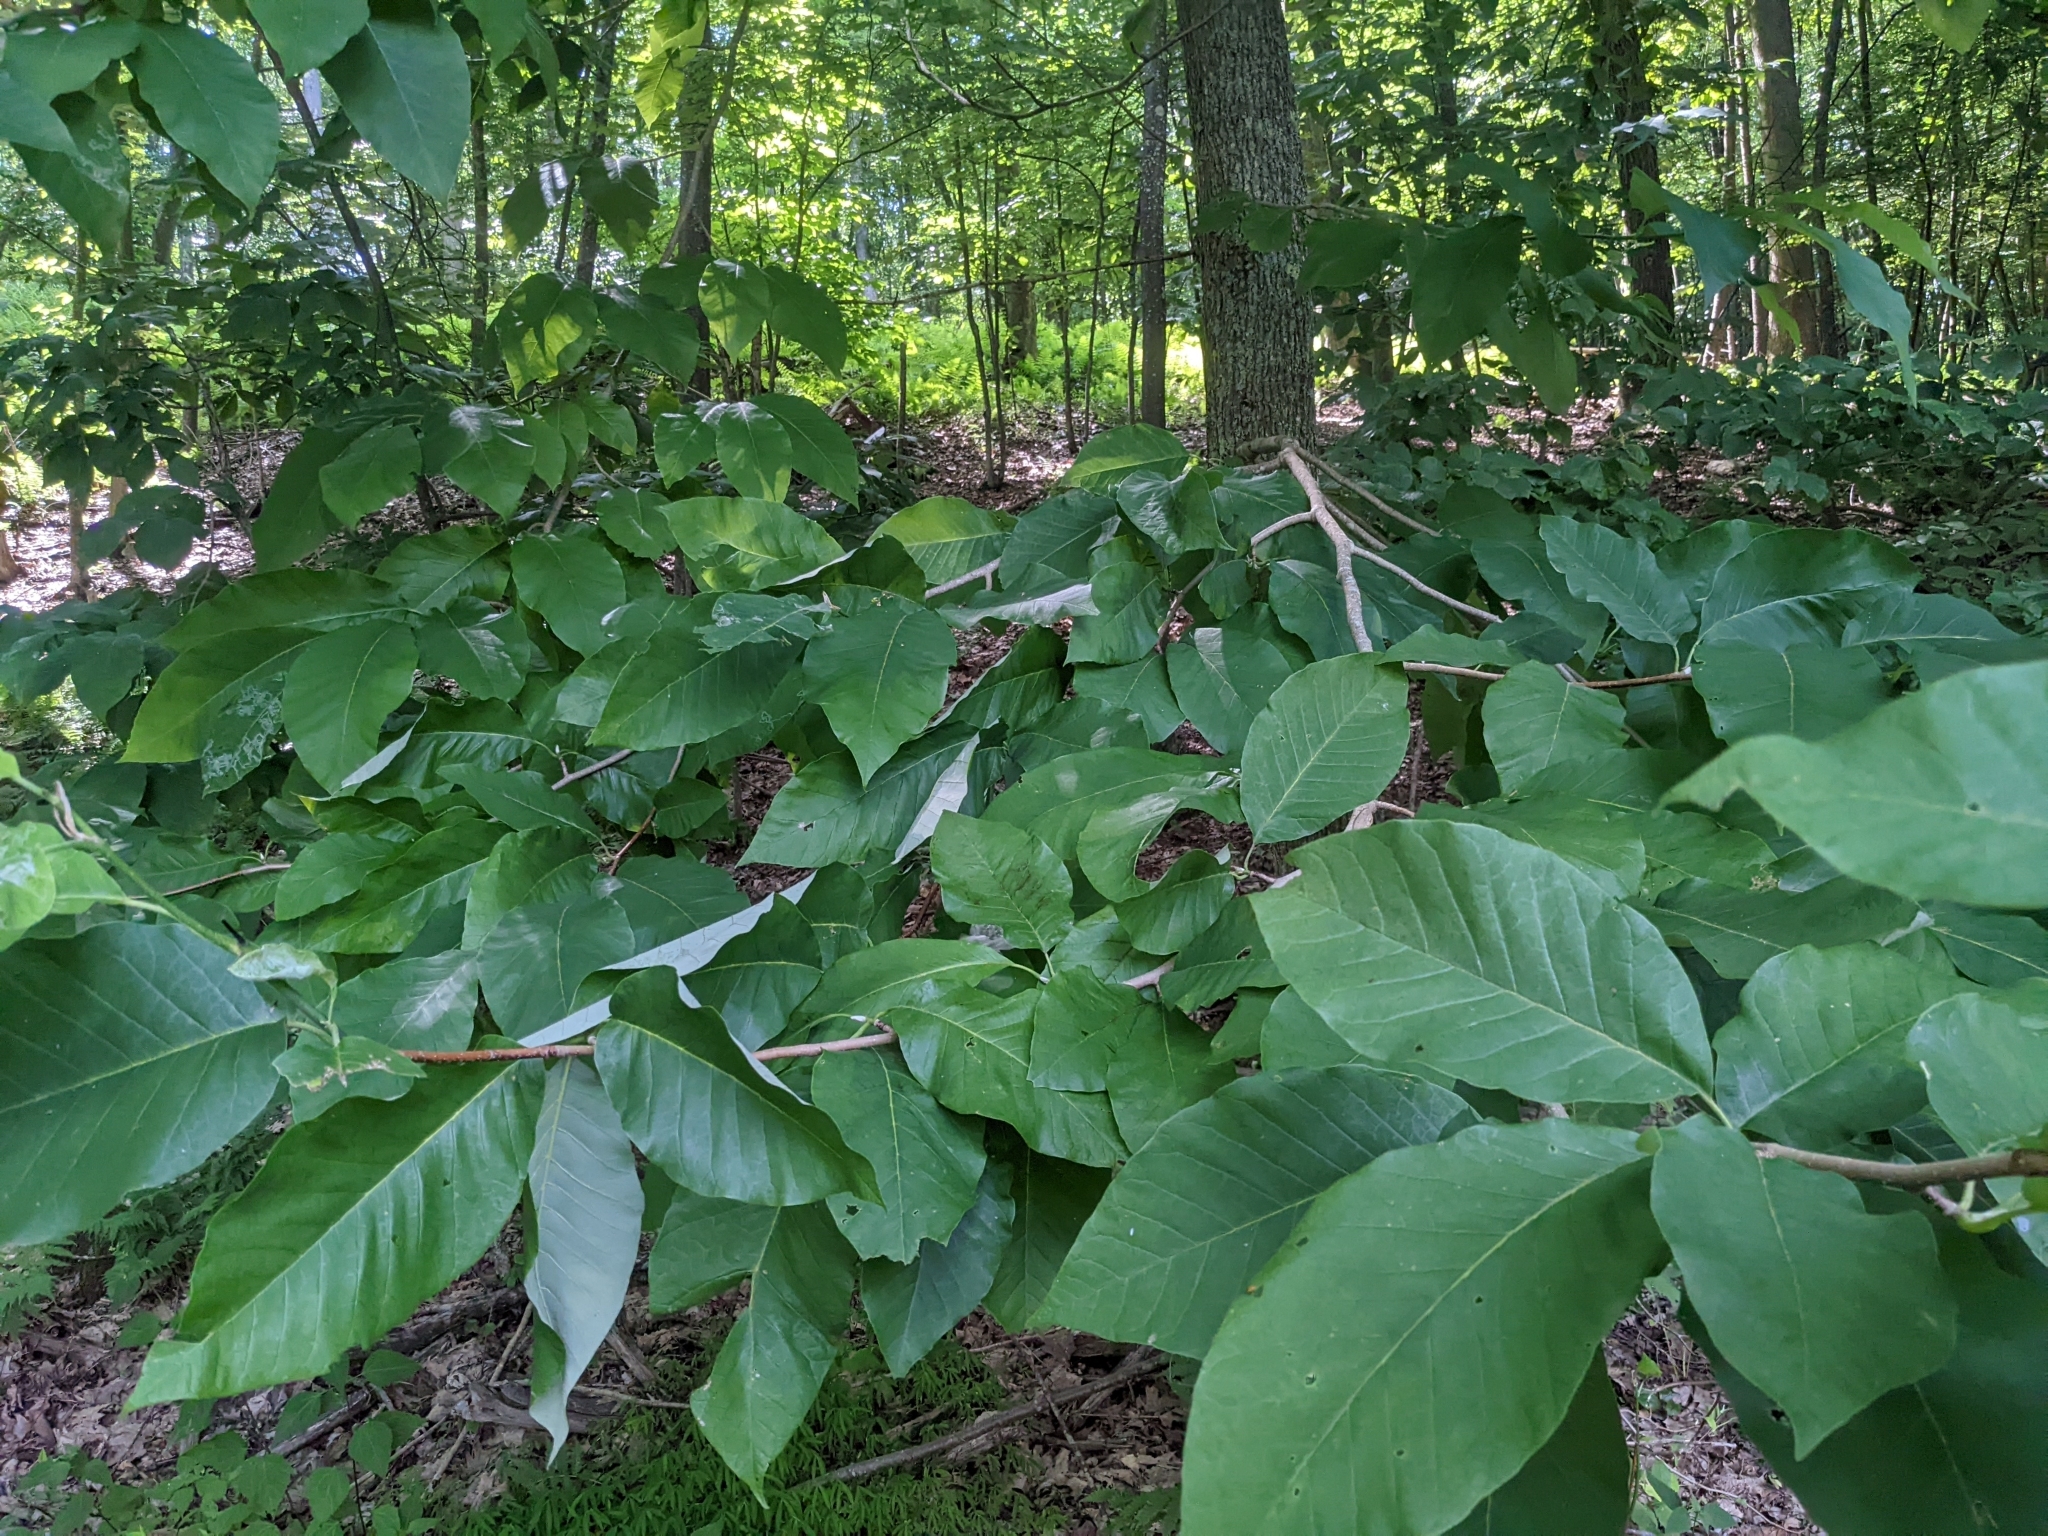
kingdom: Plantae
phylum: Tracheophyta
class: Magnoliopsida
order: Magnoliales
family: Magnoliaceae
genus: Magnolia
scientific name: Magnolia acuminata
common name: Cucumber magnolia
